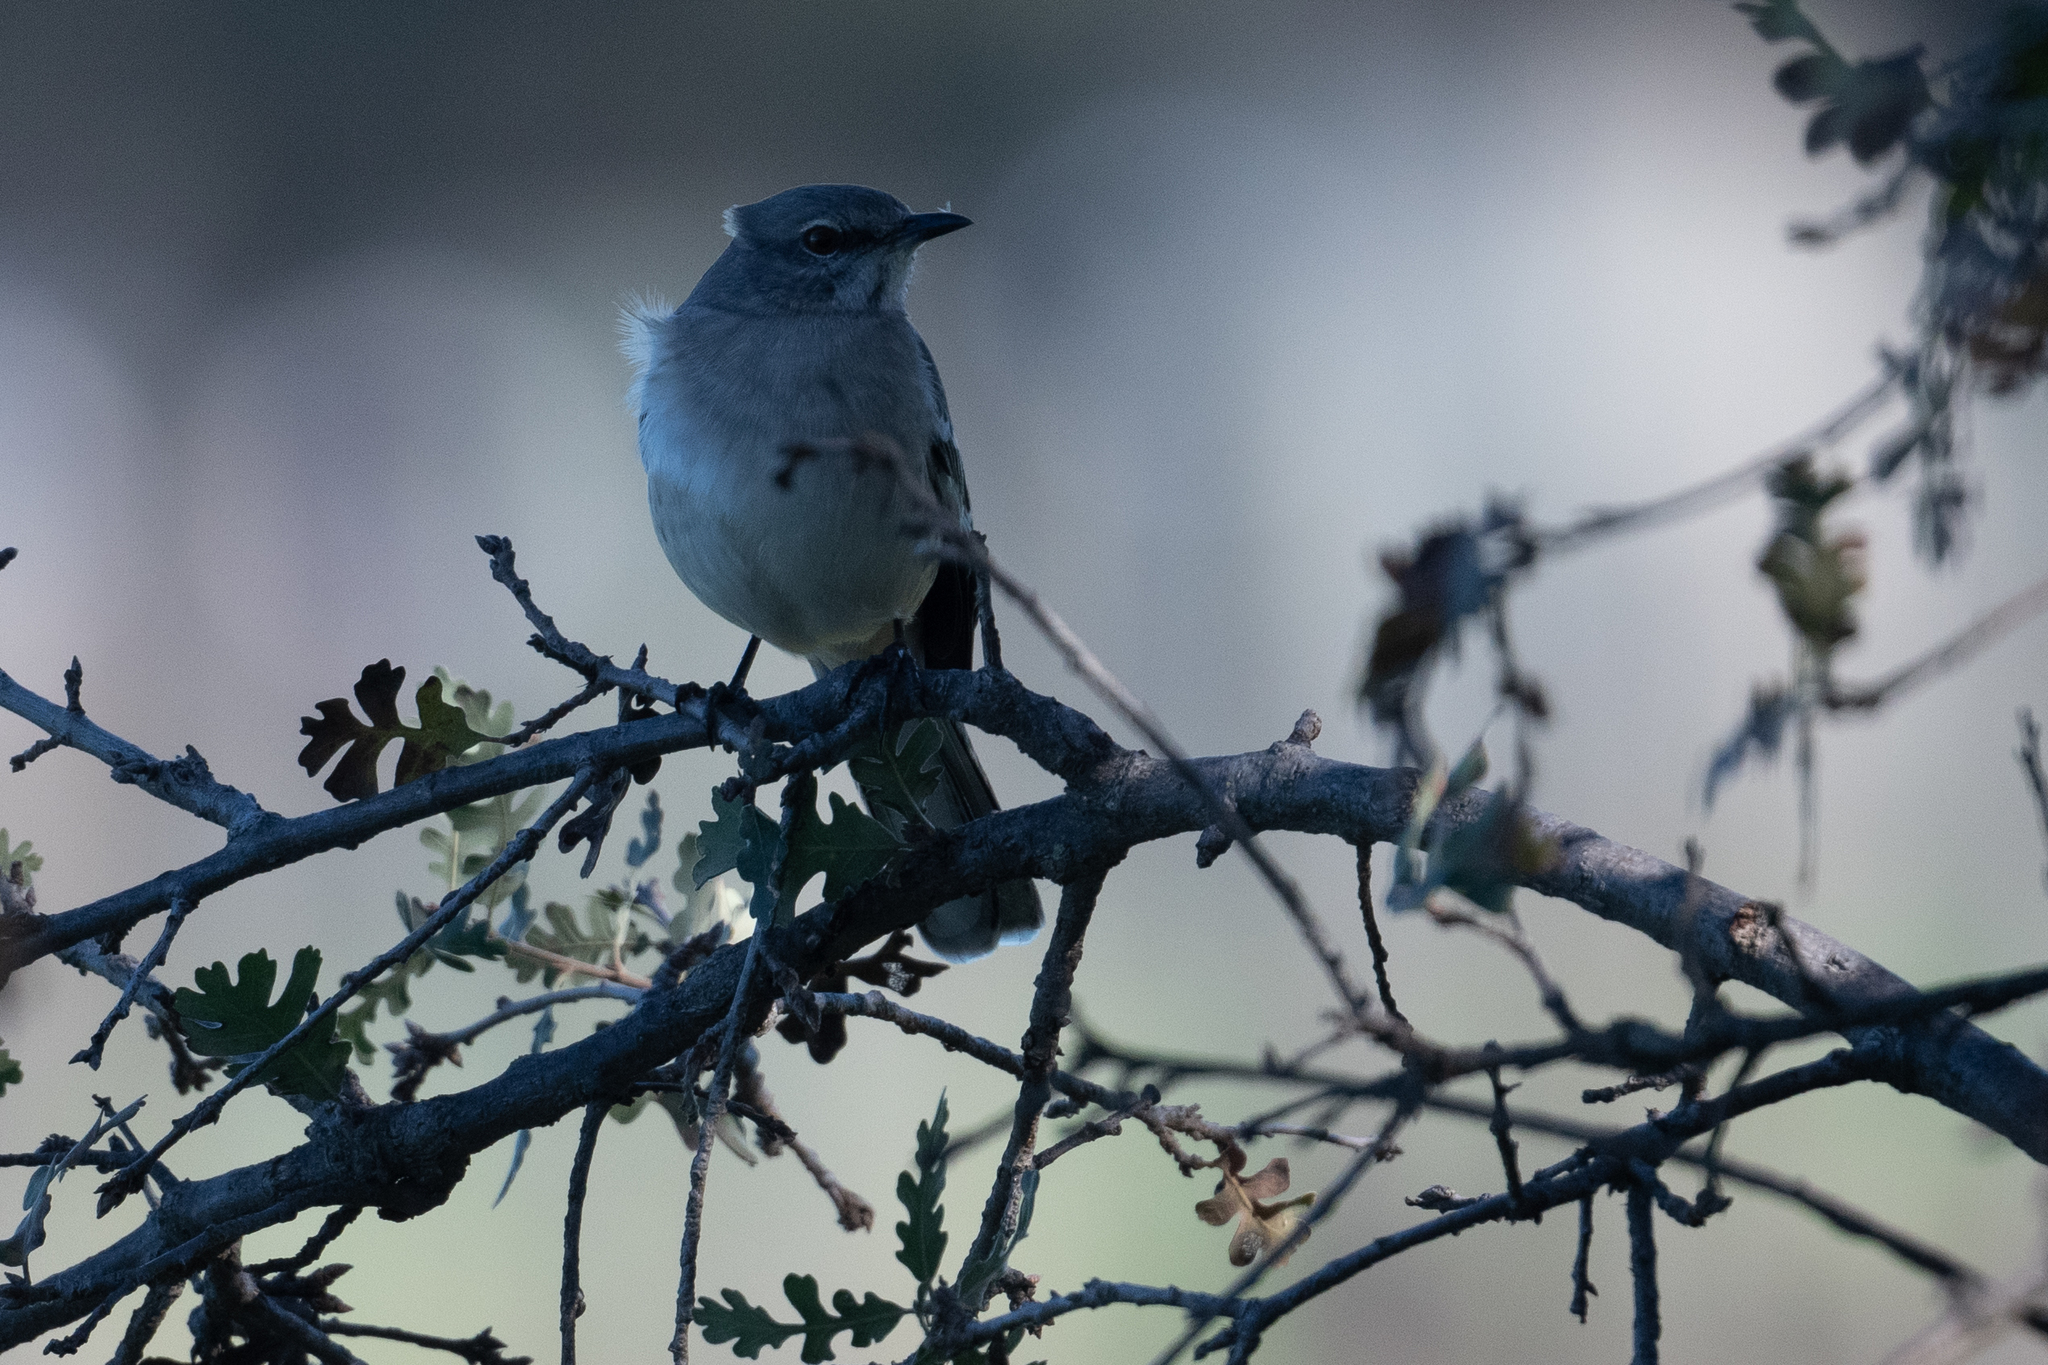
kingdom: Animalia
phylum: Chordata
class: Aves
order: Passeriformes
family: Mimidae
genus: Mimus
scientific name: Mimus polyglottos
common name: Northern mockingbird
